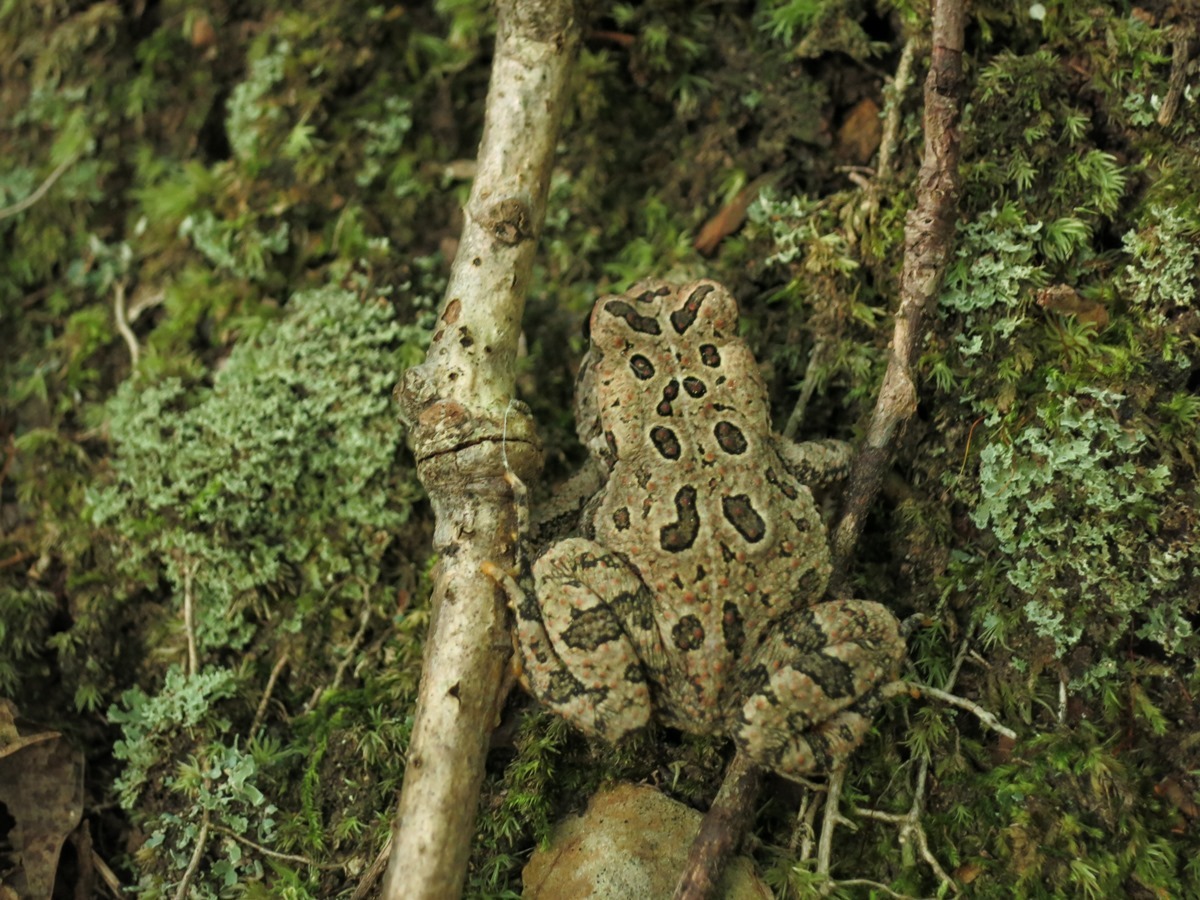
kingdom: Animalia
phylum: Chordata
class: Amphibia
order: Anura
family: Bufonidae
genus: Anaxyrus
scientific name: Anaxyrus fowleri
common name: Fowler's toad
